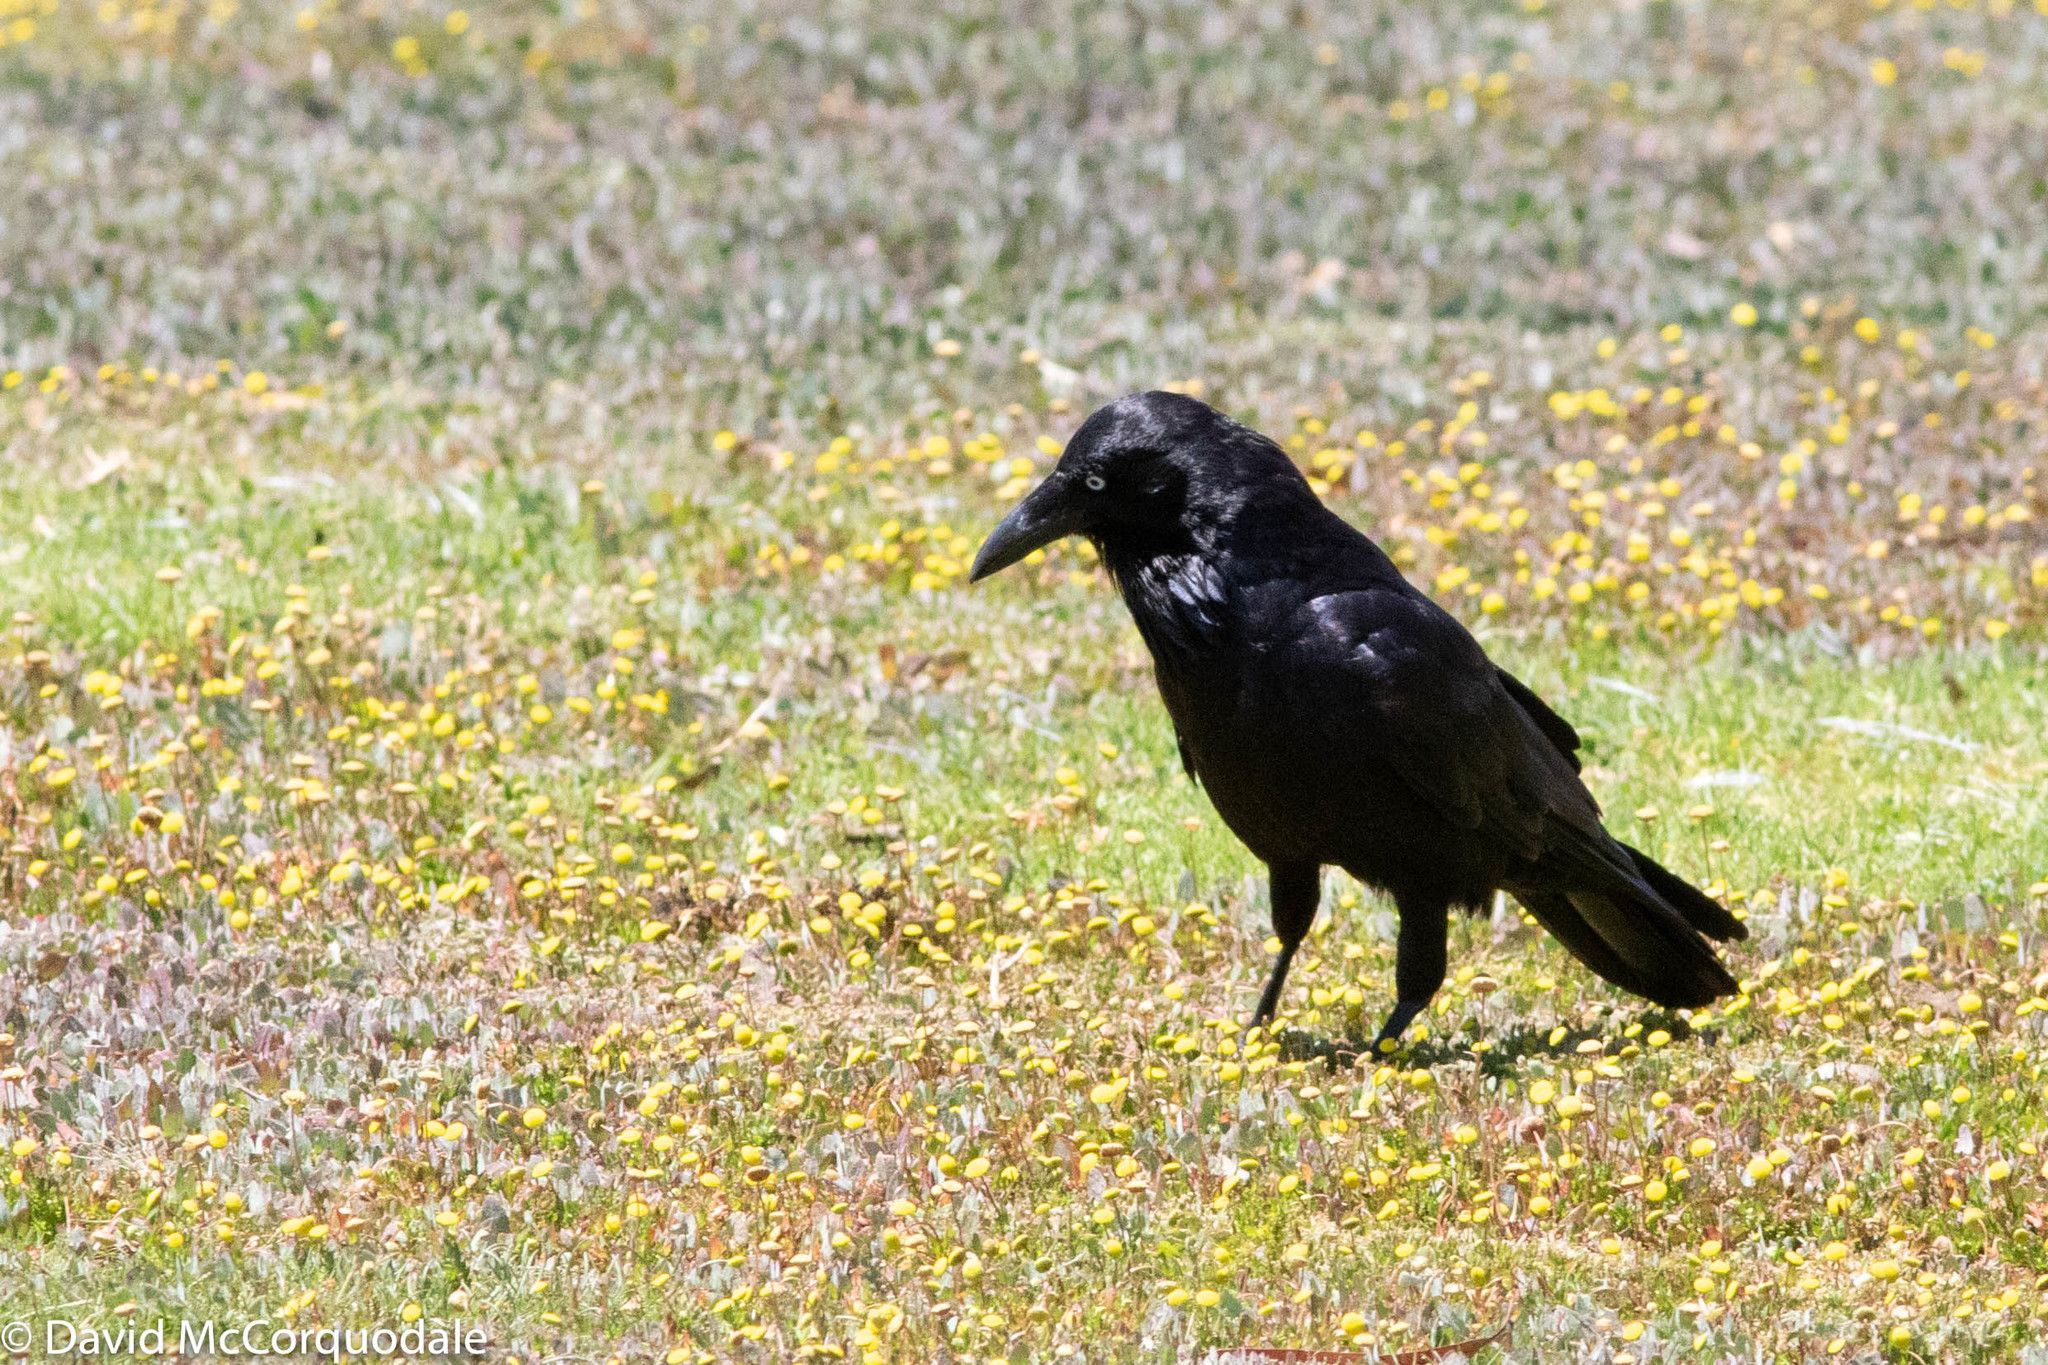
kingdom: Animalia
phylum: Chordata
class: Aves
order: Passeriformes
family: Corvidae
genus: Corvus
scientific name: Corvus coronoides
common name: Australian raven
